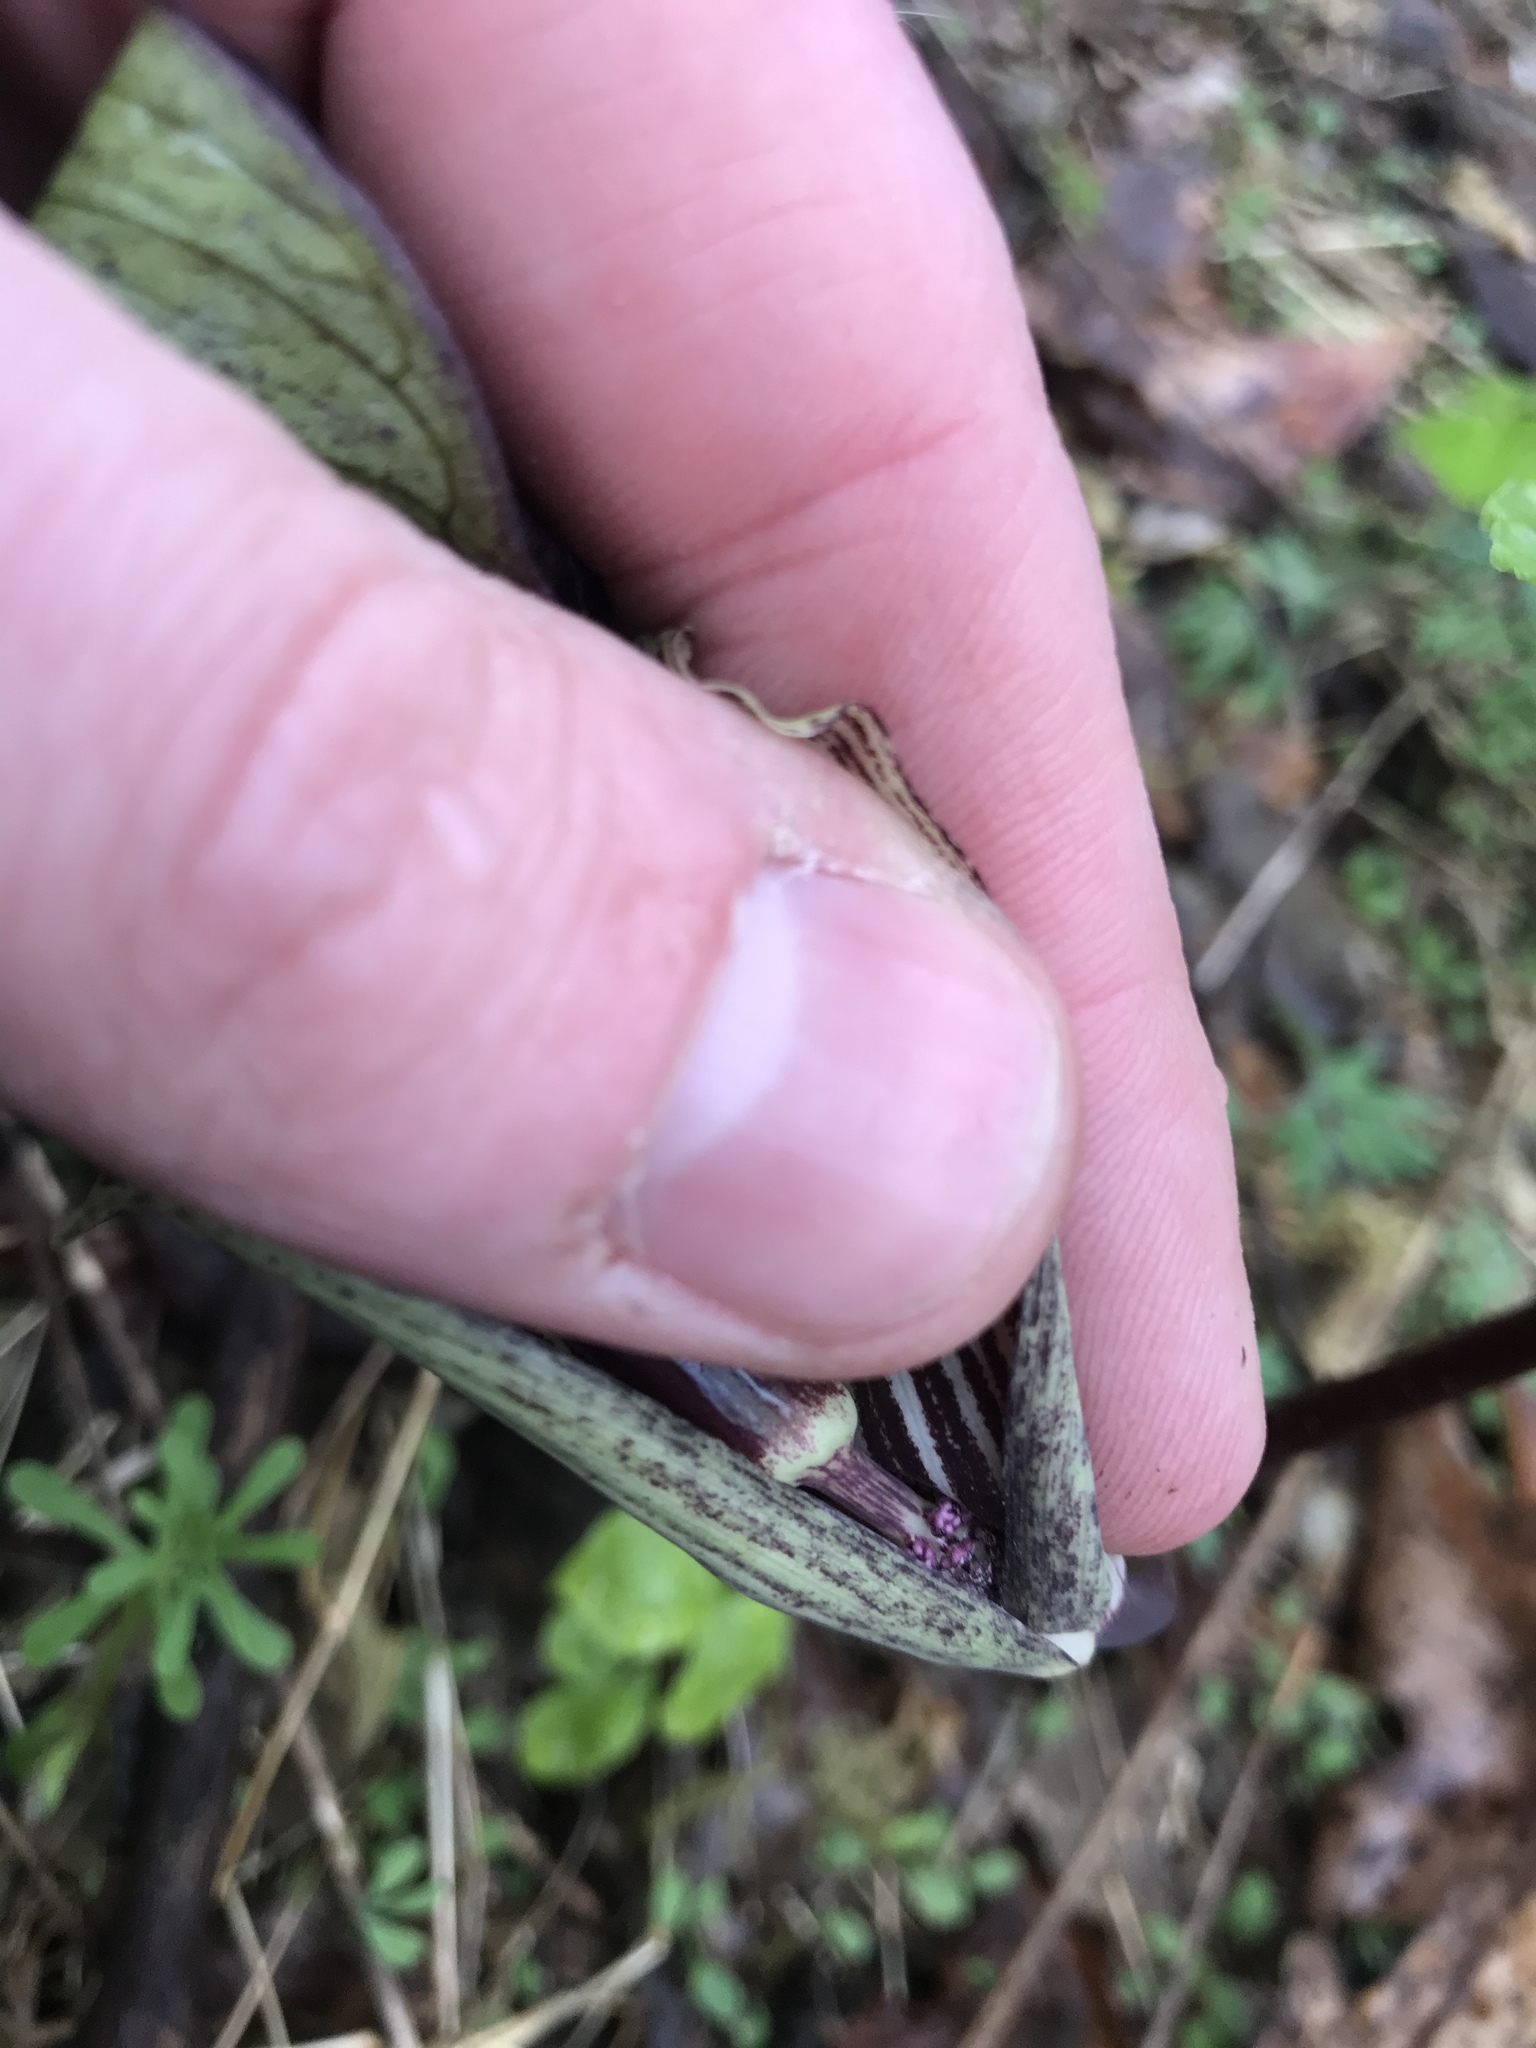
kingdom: Plantae
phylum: Tracheophyta
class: Liliopsida
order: Alismatales
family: Araceae
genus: Arisaema
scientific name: Arisaema triphyllum
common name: Jack-in-the-pulpit
